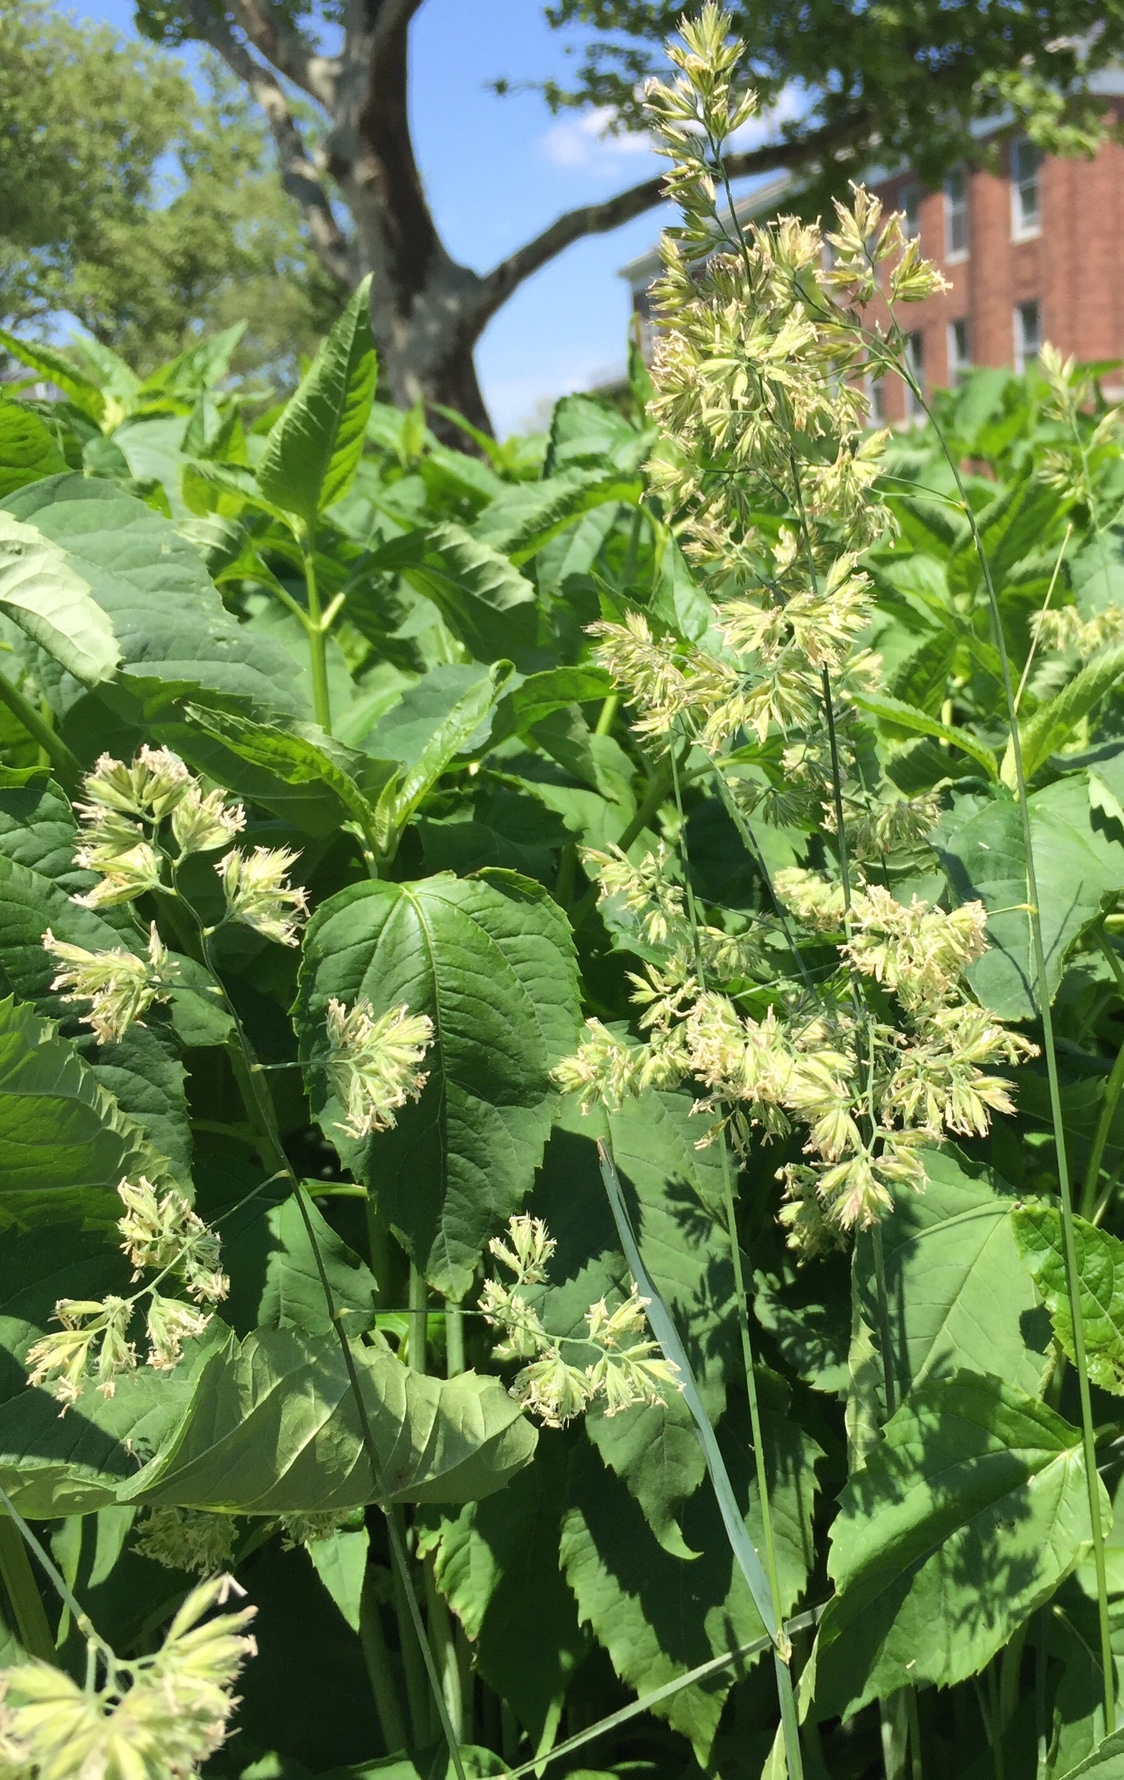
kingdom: Plantae
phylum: Tracheophyta
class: Liliopsida
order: Poales
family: Poaceae
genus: Dactylis
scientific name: Dactylis glomerata
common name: Orchardgrass
